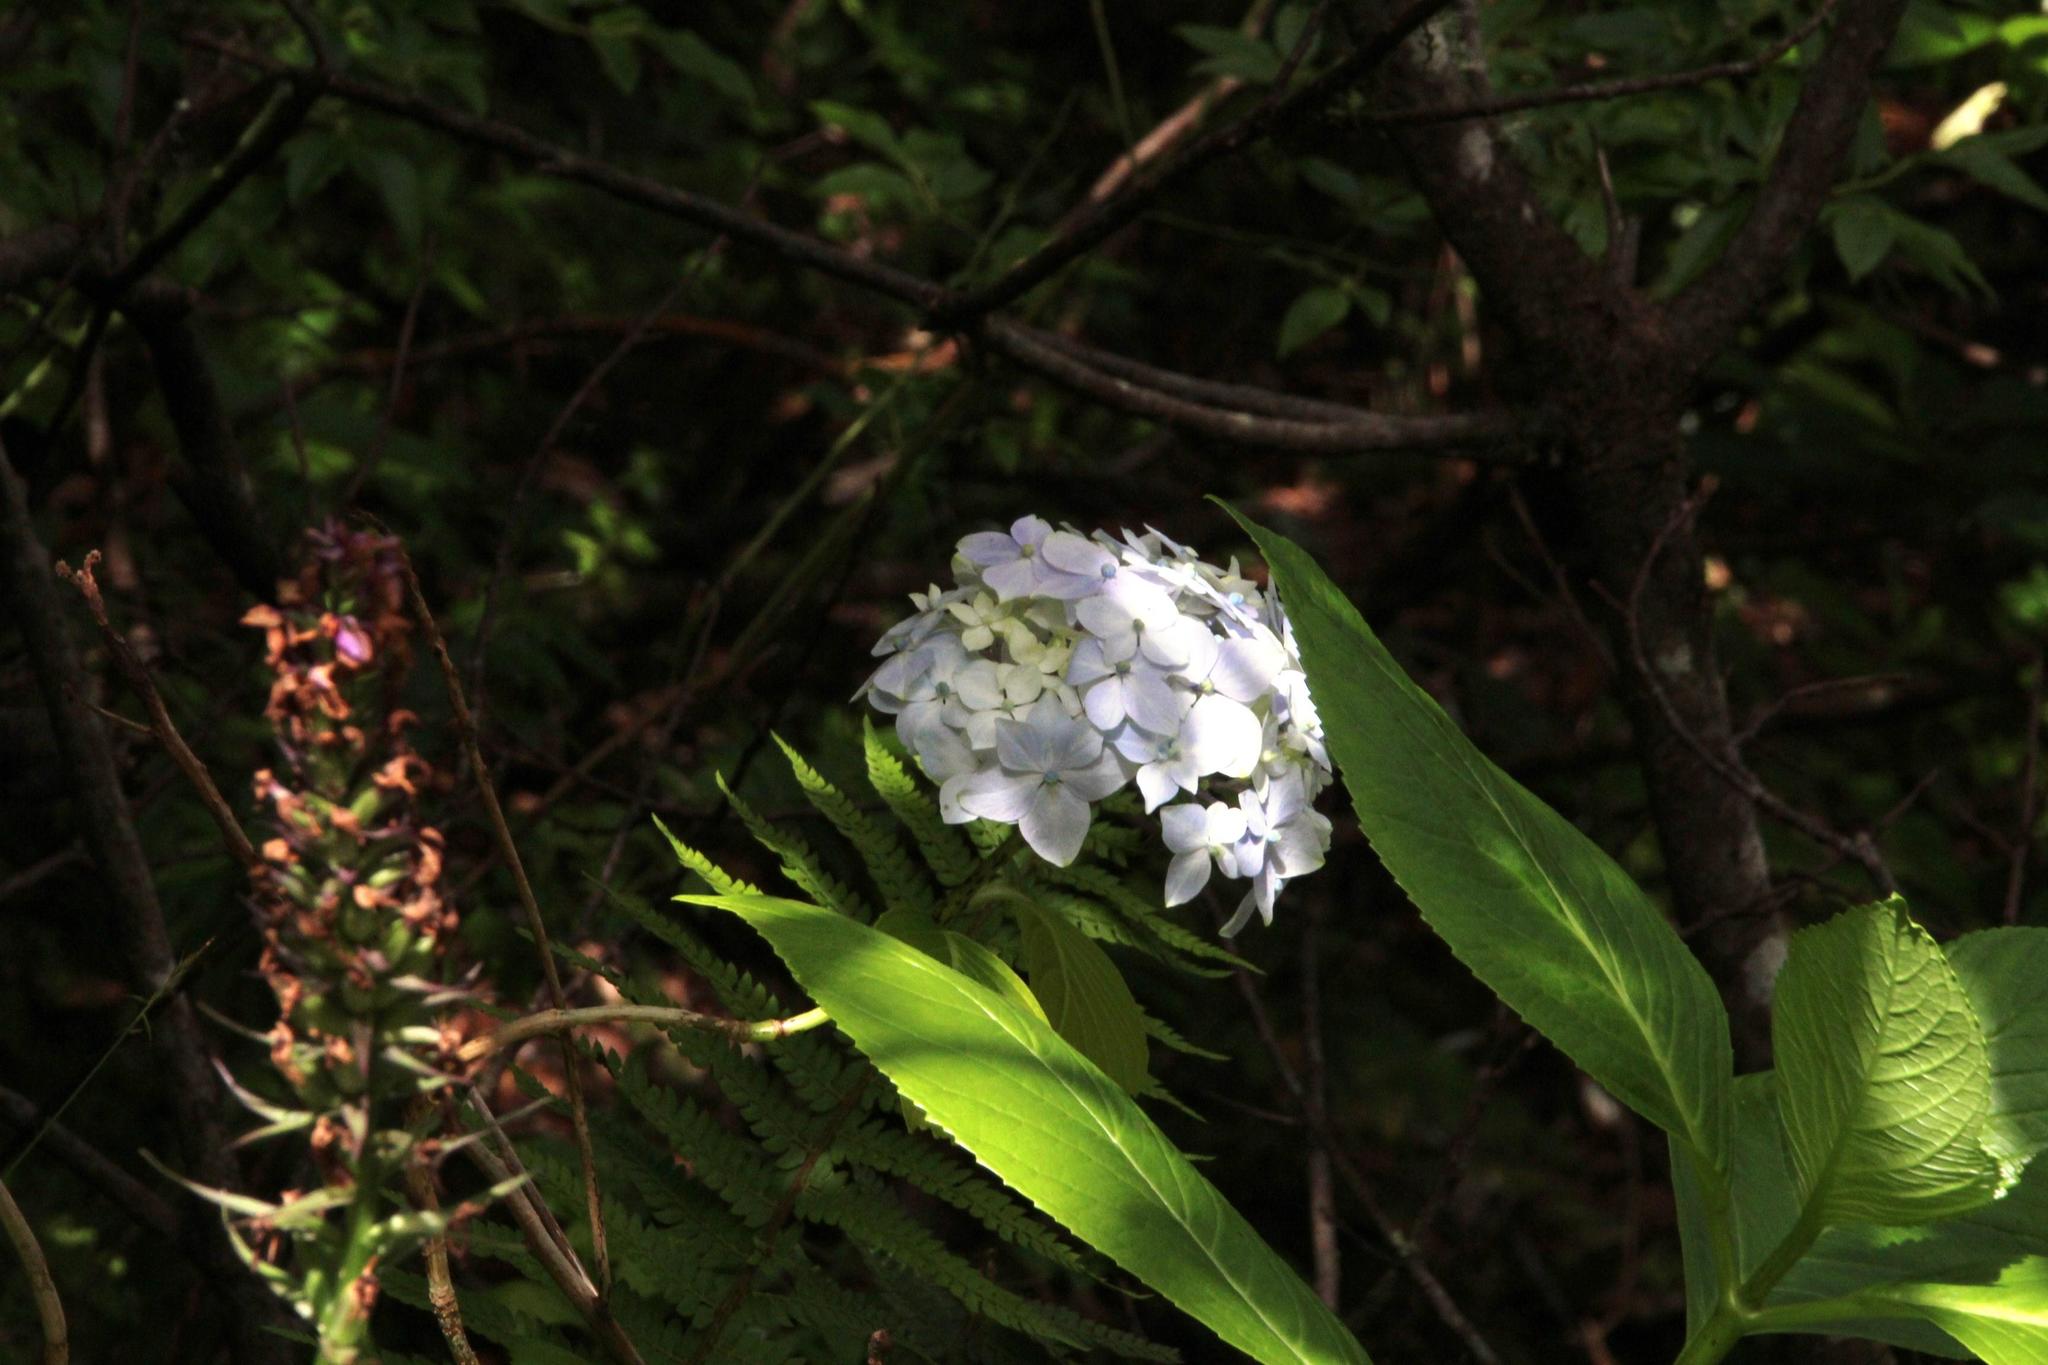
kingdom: Plantae
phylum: Tracheophyta
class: Magnoliopsida
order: Cornales
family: Hydrangeaceae
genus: Hydrangea
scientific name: Hydrangea macrophylla
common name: Hydrangea
